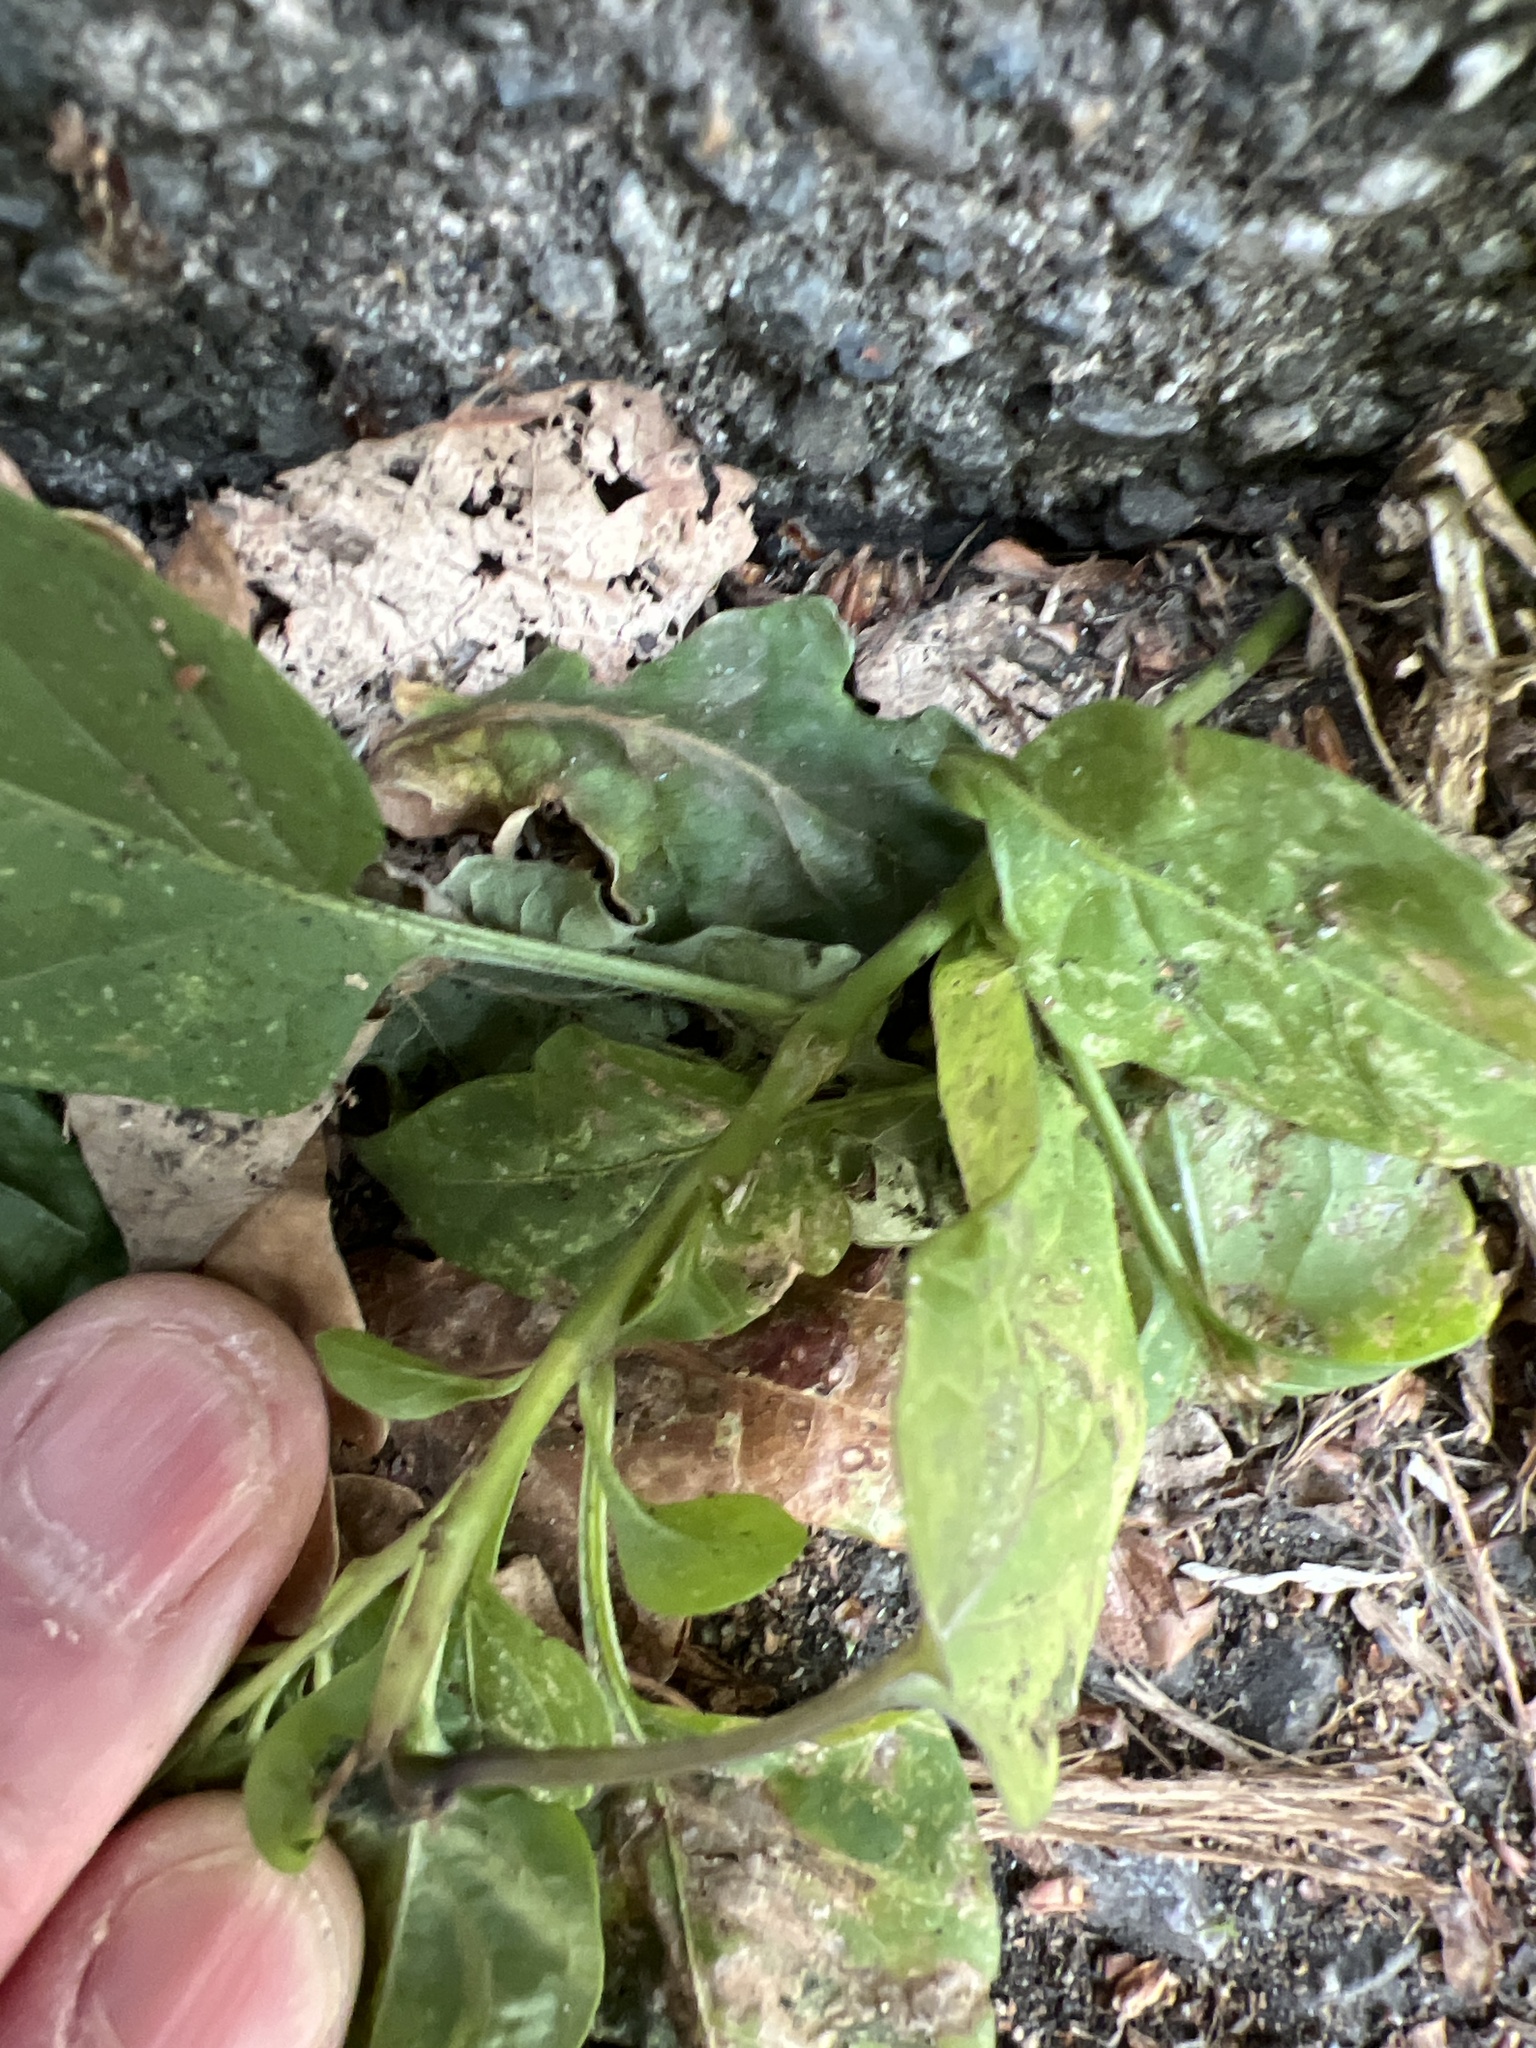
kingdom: Plantae
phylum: Tracheophyta
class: Magnoliopsida
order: Solanales
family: Solanaceae
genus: Solanum
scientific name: Solanum dulcamara
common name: Climbing nightshade
